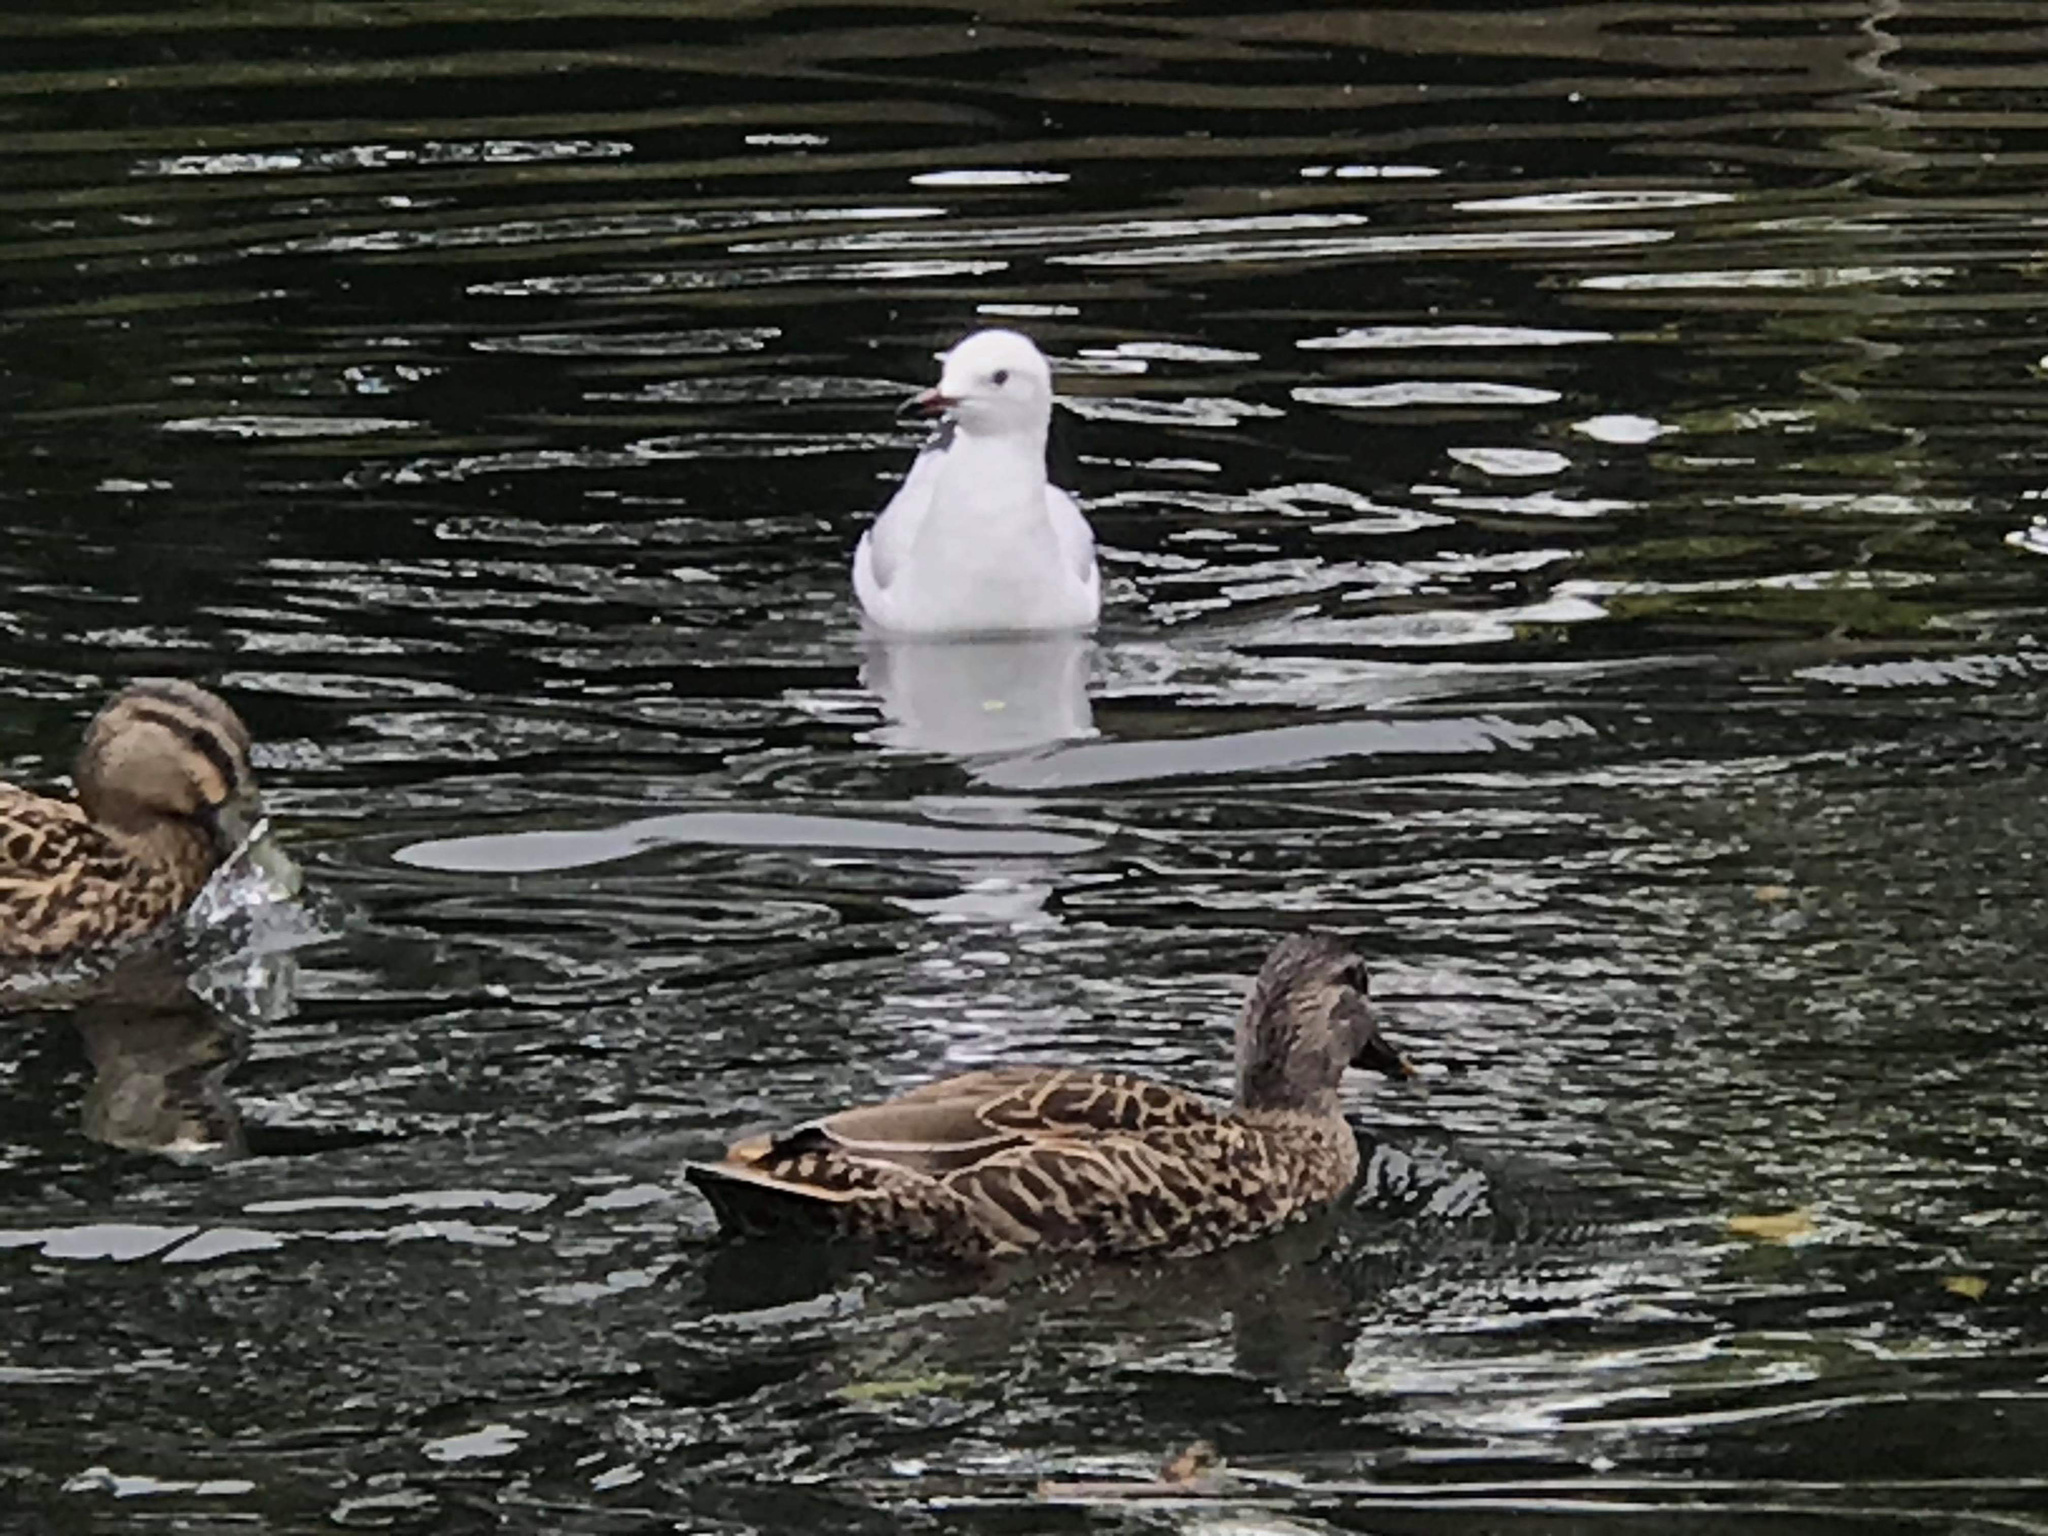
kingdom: Animalia
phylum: Chordata
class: Aves
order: Charadriiformes
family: Laridae
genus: Chroicocephalus
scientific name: Chroicocephalus novaehollandiae
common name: Silver gull
